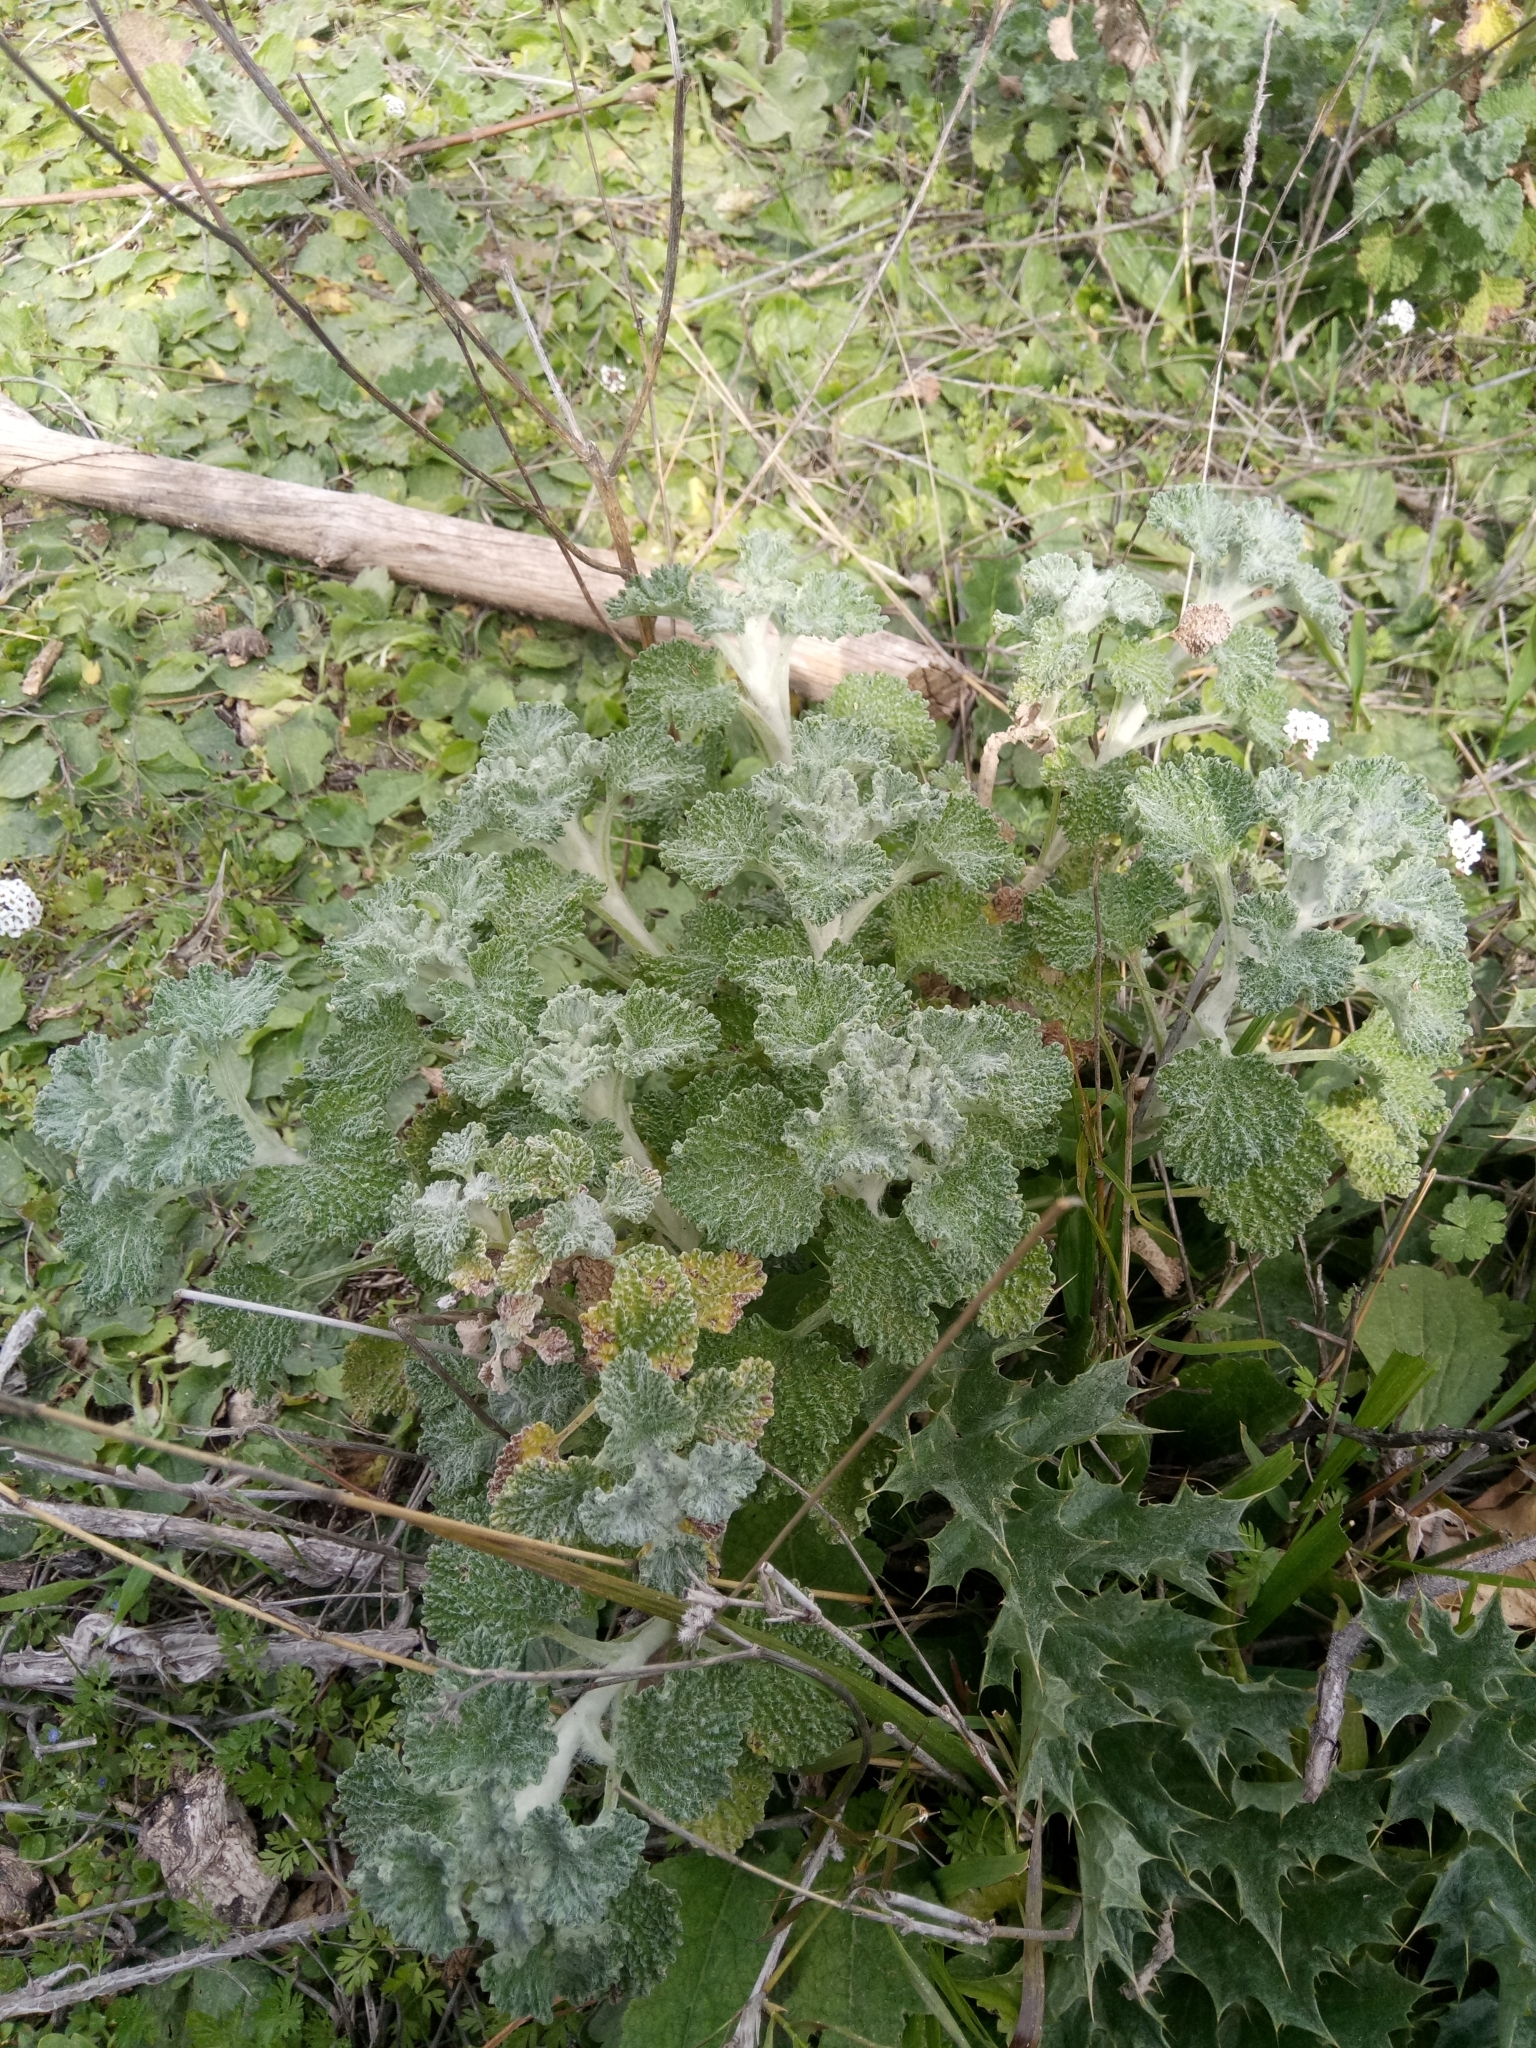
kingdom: Plantae
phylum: Tracheophyta
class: Magnoliopsida
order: Lamiales
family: Lamiaceae
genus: Marrubium
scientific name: Marrubium vulgare
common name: Horehound
